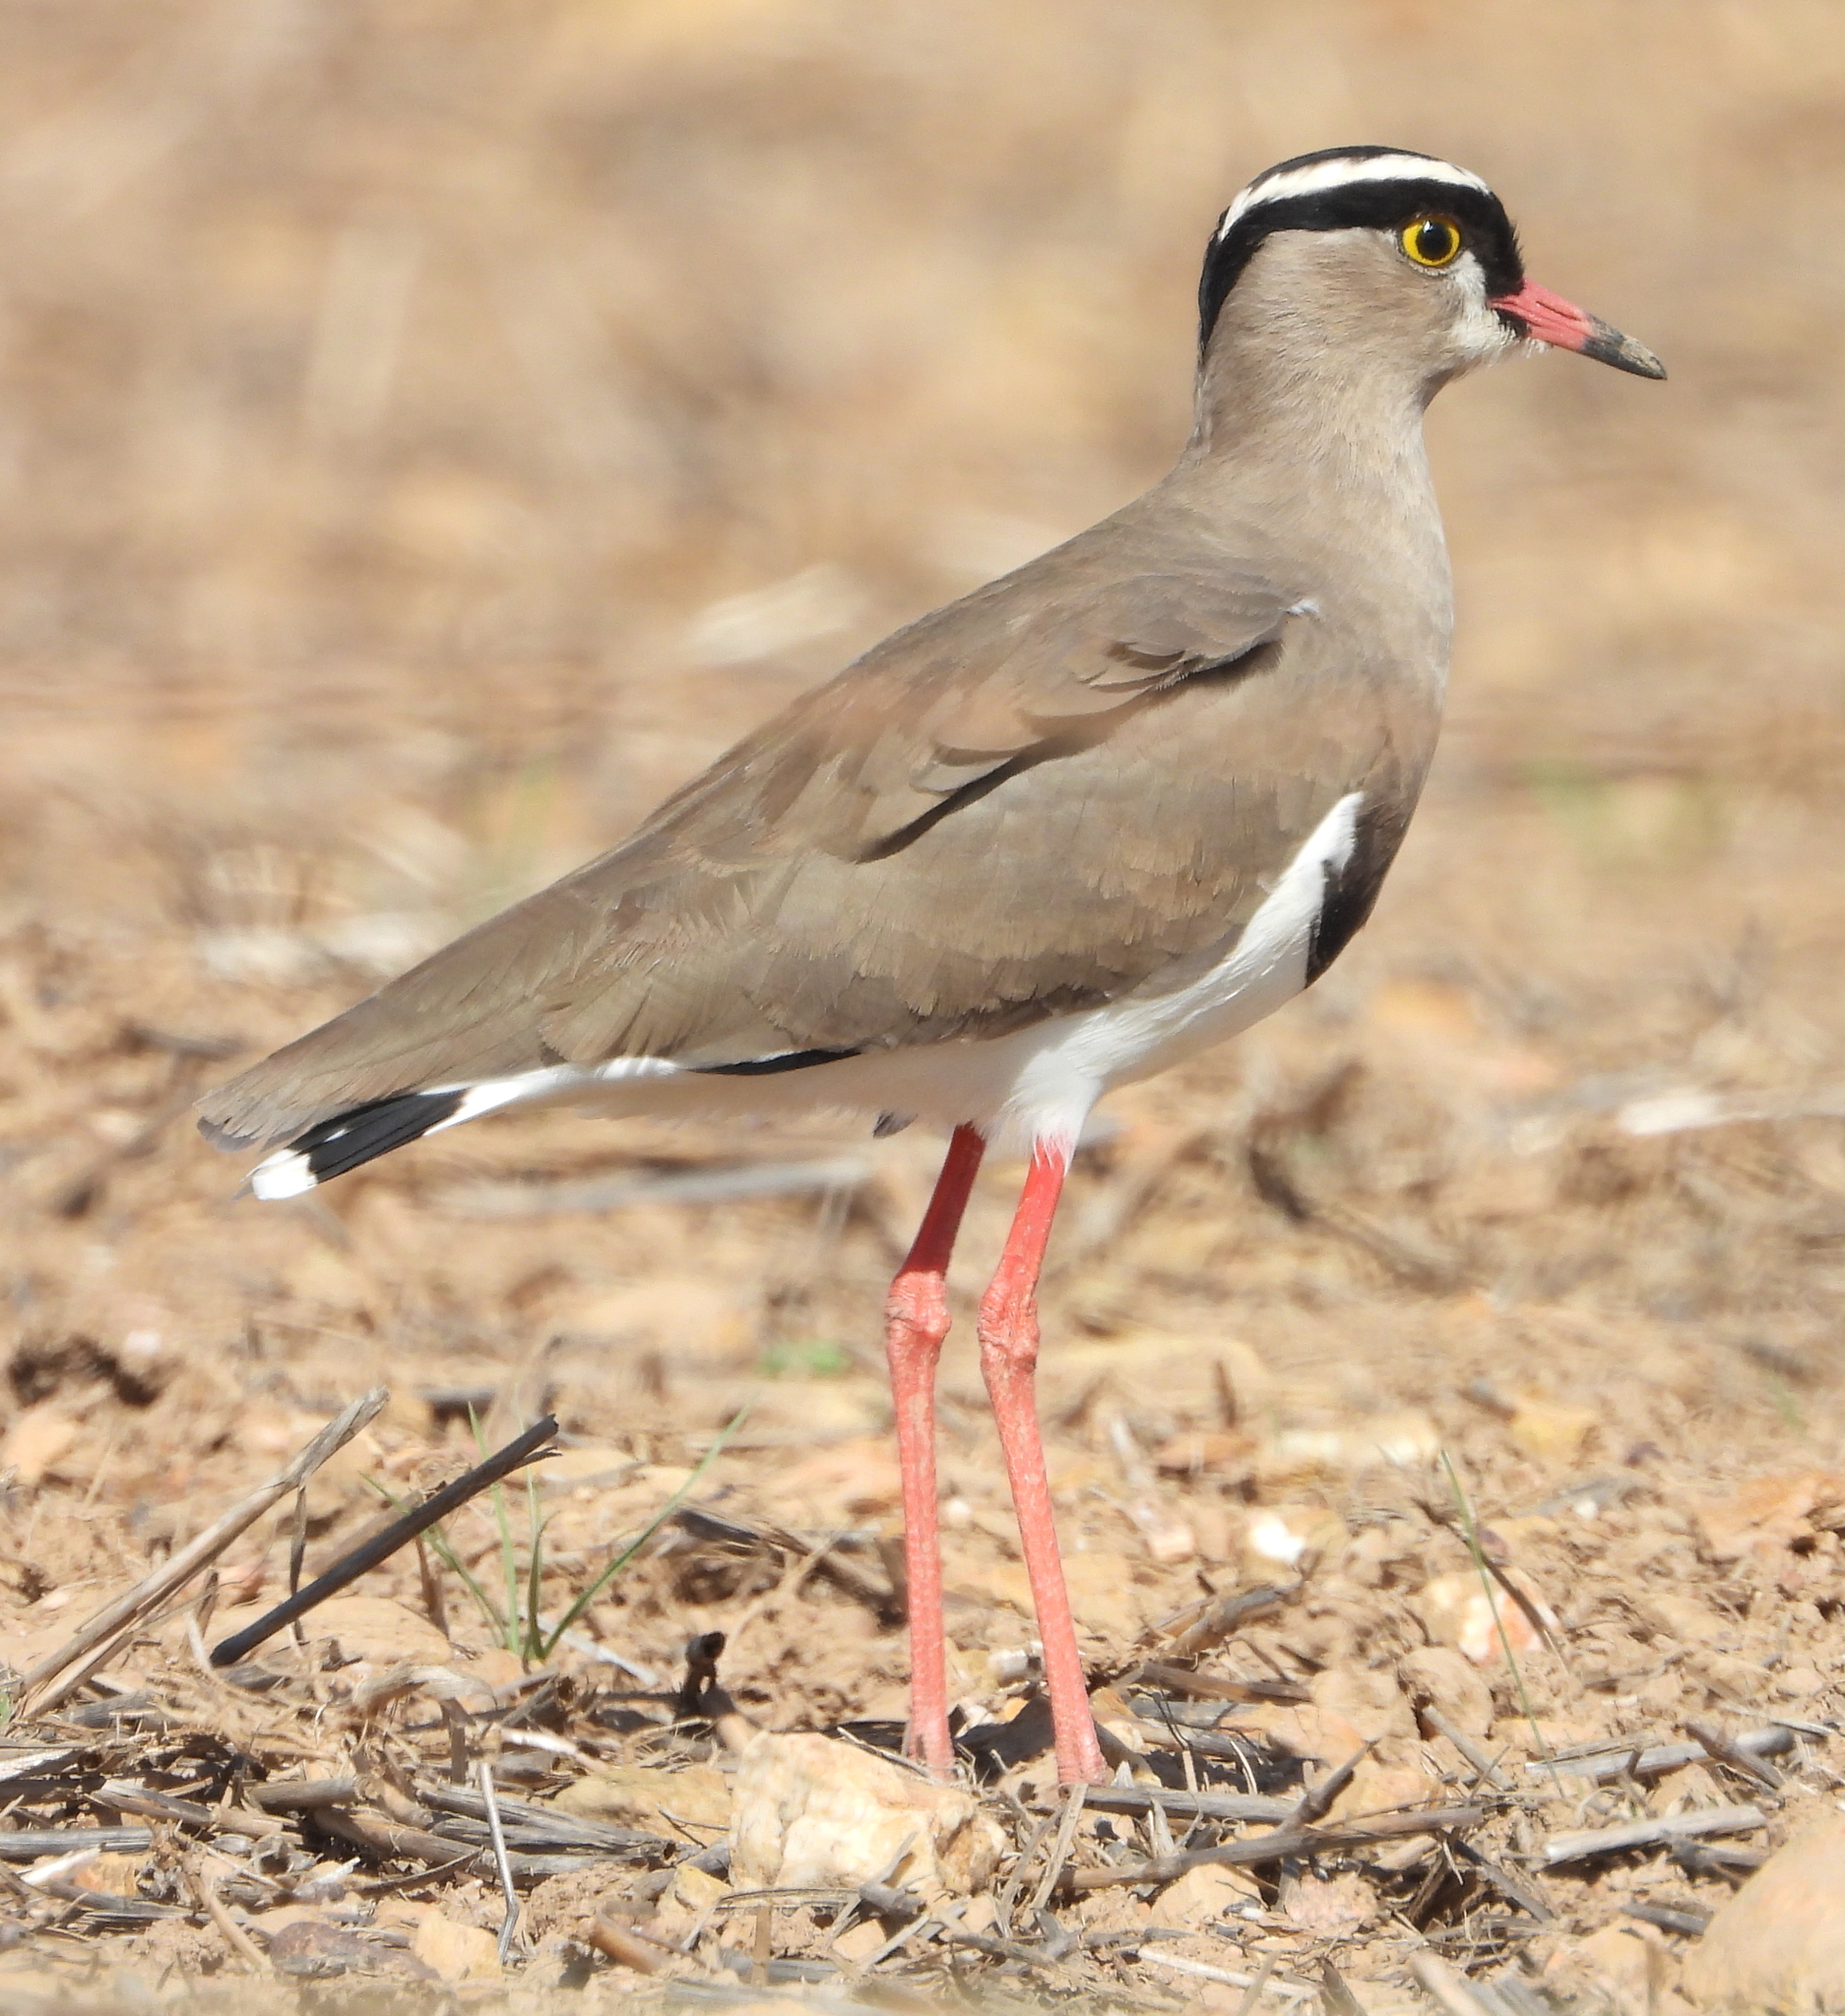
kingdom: Animalia
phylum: Chordata
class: Aves
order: Charadriiformes
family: Charadriidae
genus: Vanellus
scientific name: Vanellus coronatus
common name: Crowned lapwing
